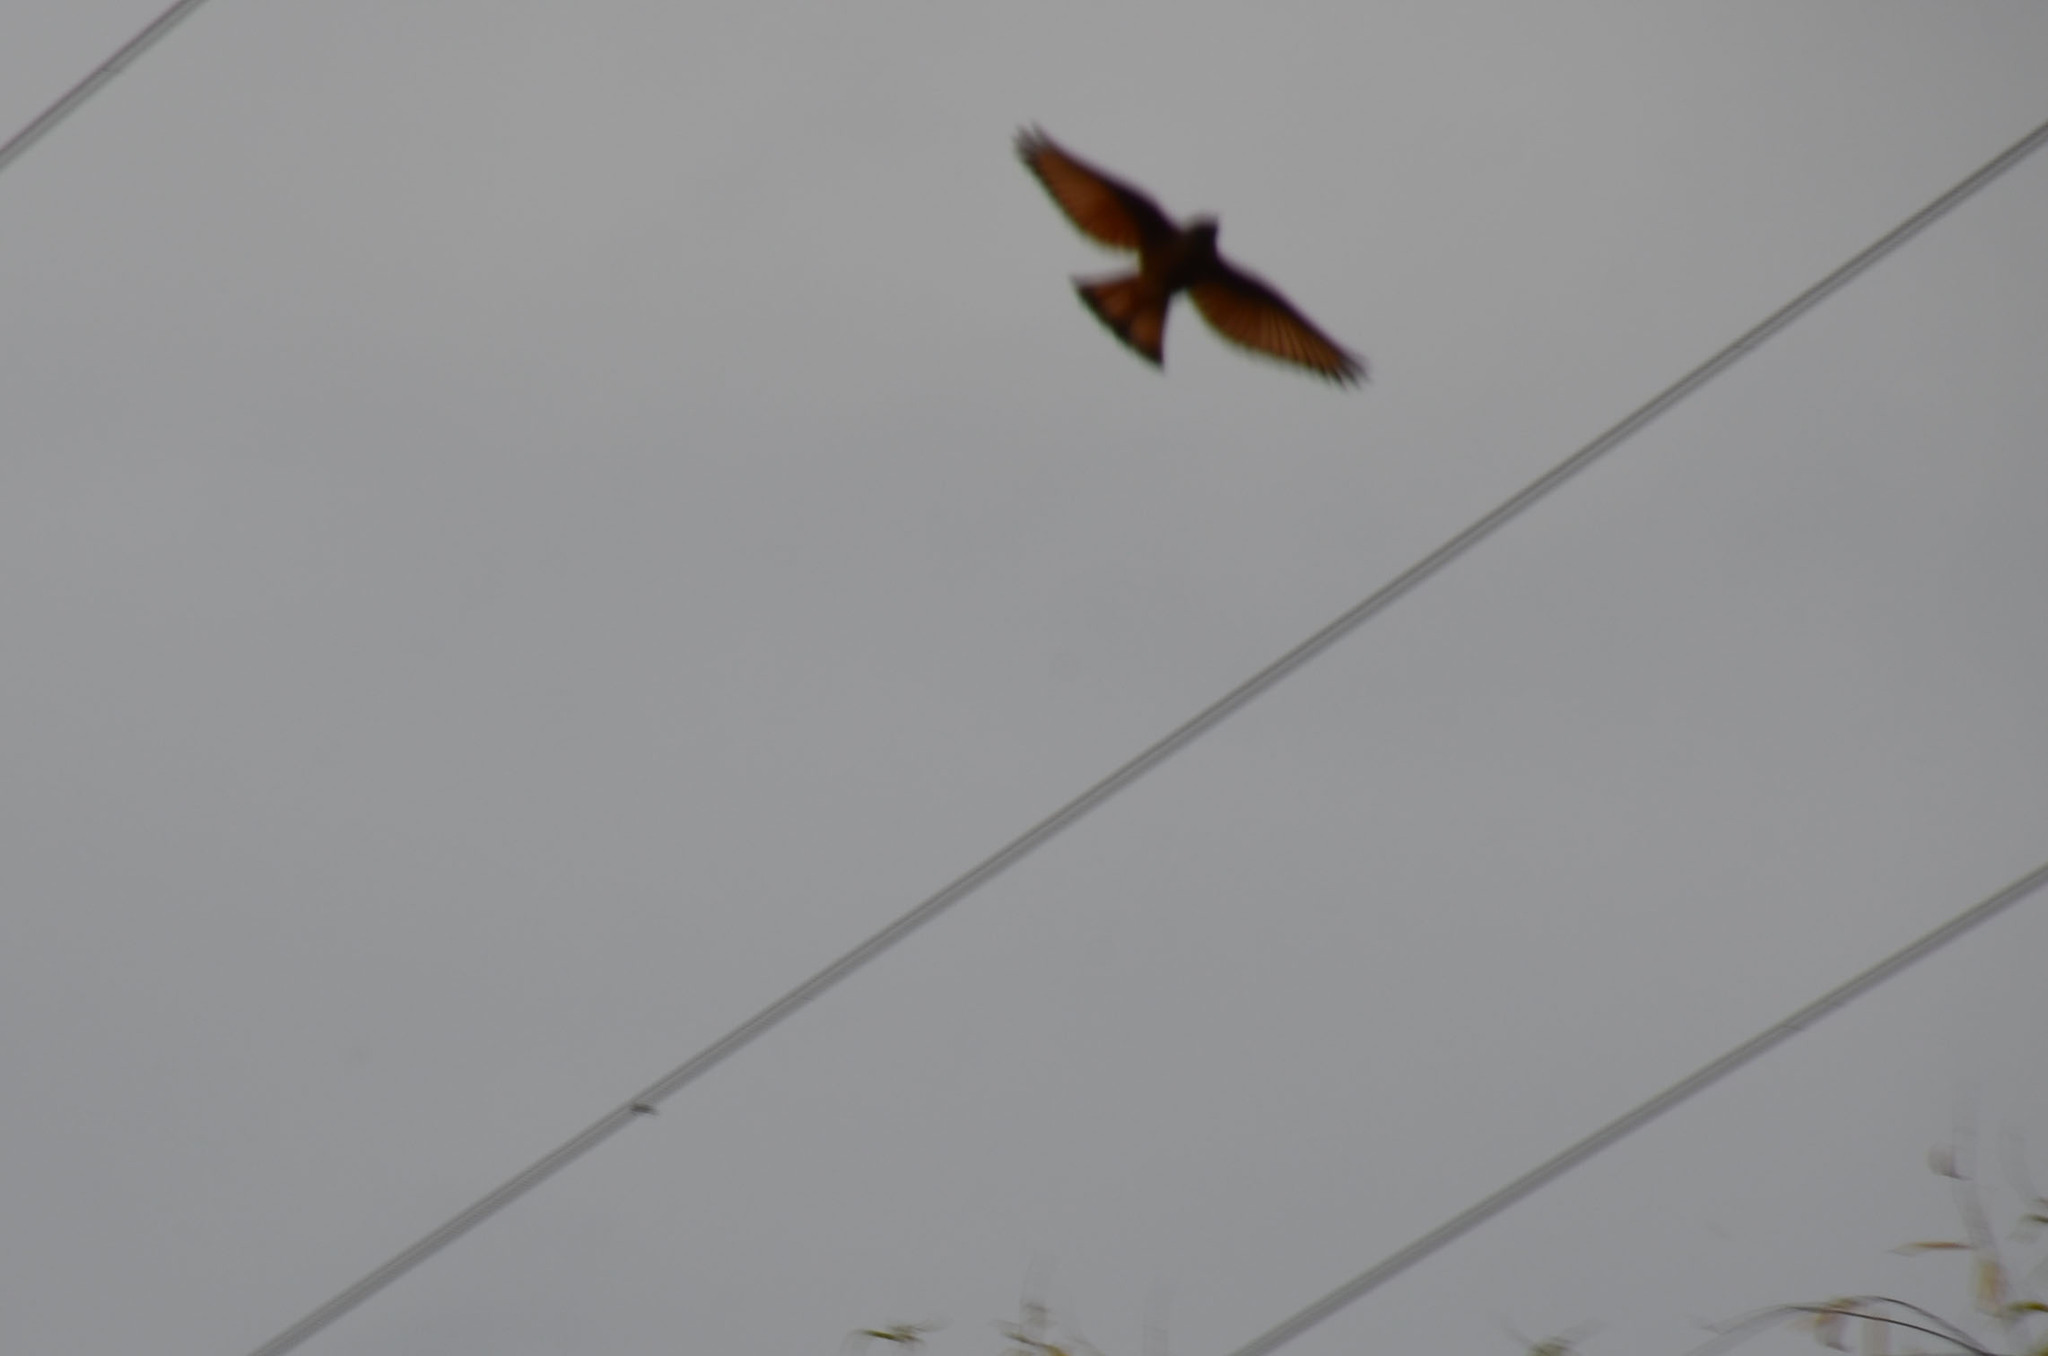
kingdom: Animalia
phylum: Chordata
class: Aves
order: Passeriformes
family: Tyrannidae
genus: Hirundinea
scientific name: Hirundinea ferruginea
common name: Cliff flycatcher
